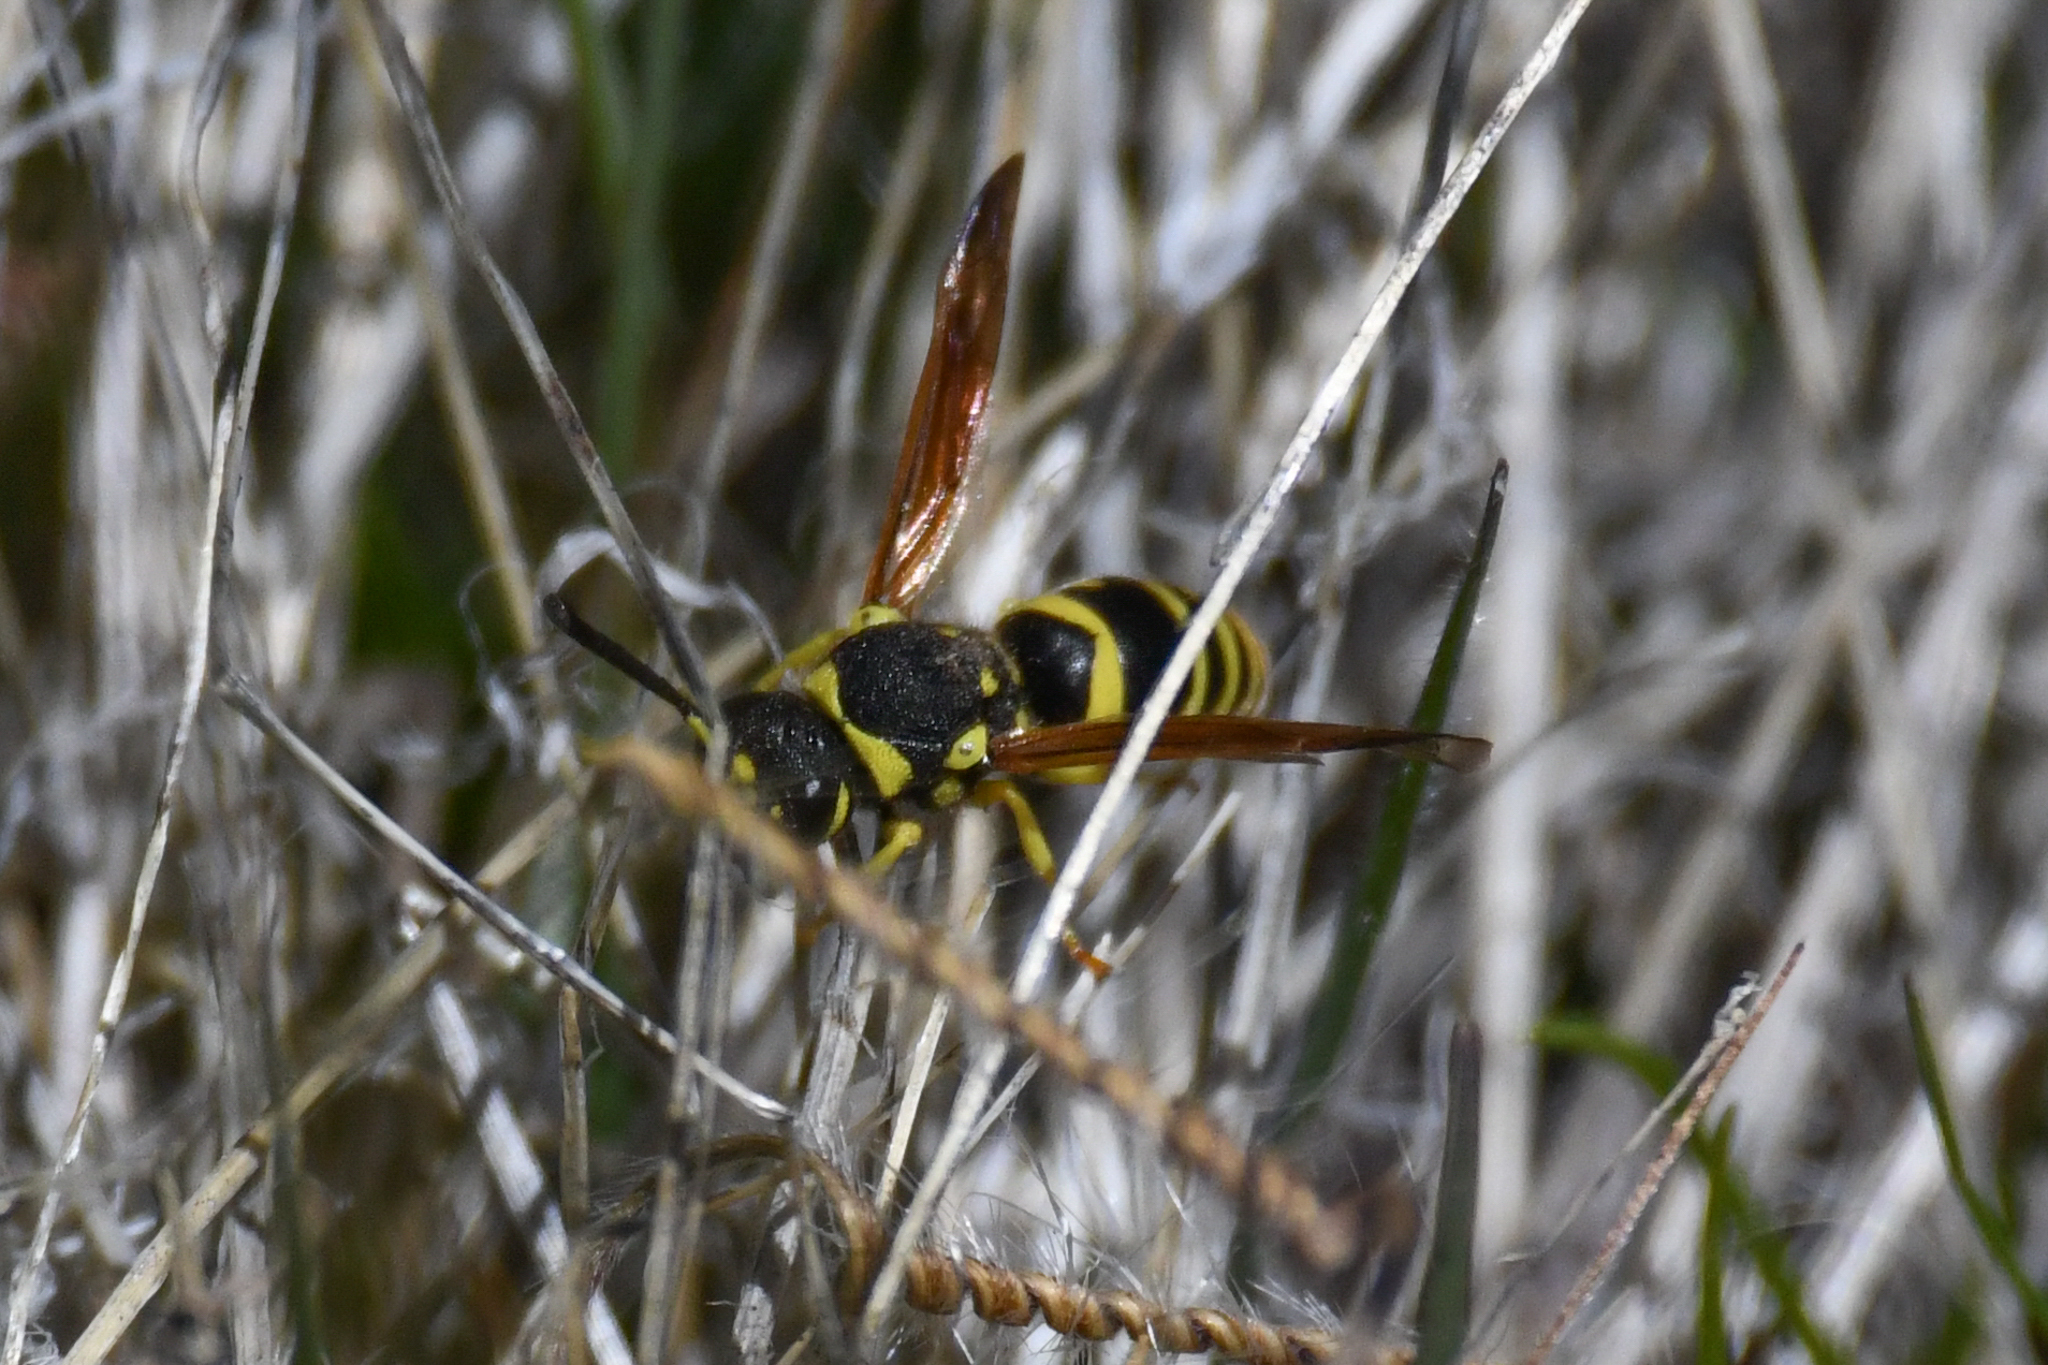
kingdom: Animalia
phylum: Arthropoda
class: Insecta
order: Hymenoptera
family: Eumenidae
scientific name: Eumenidae
